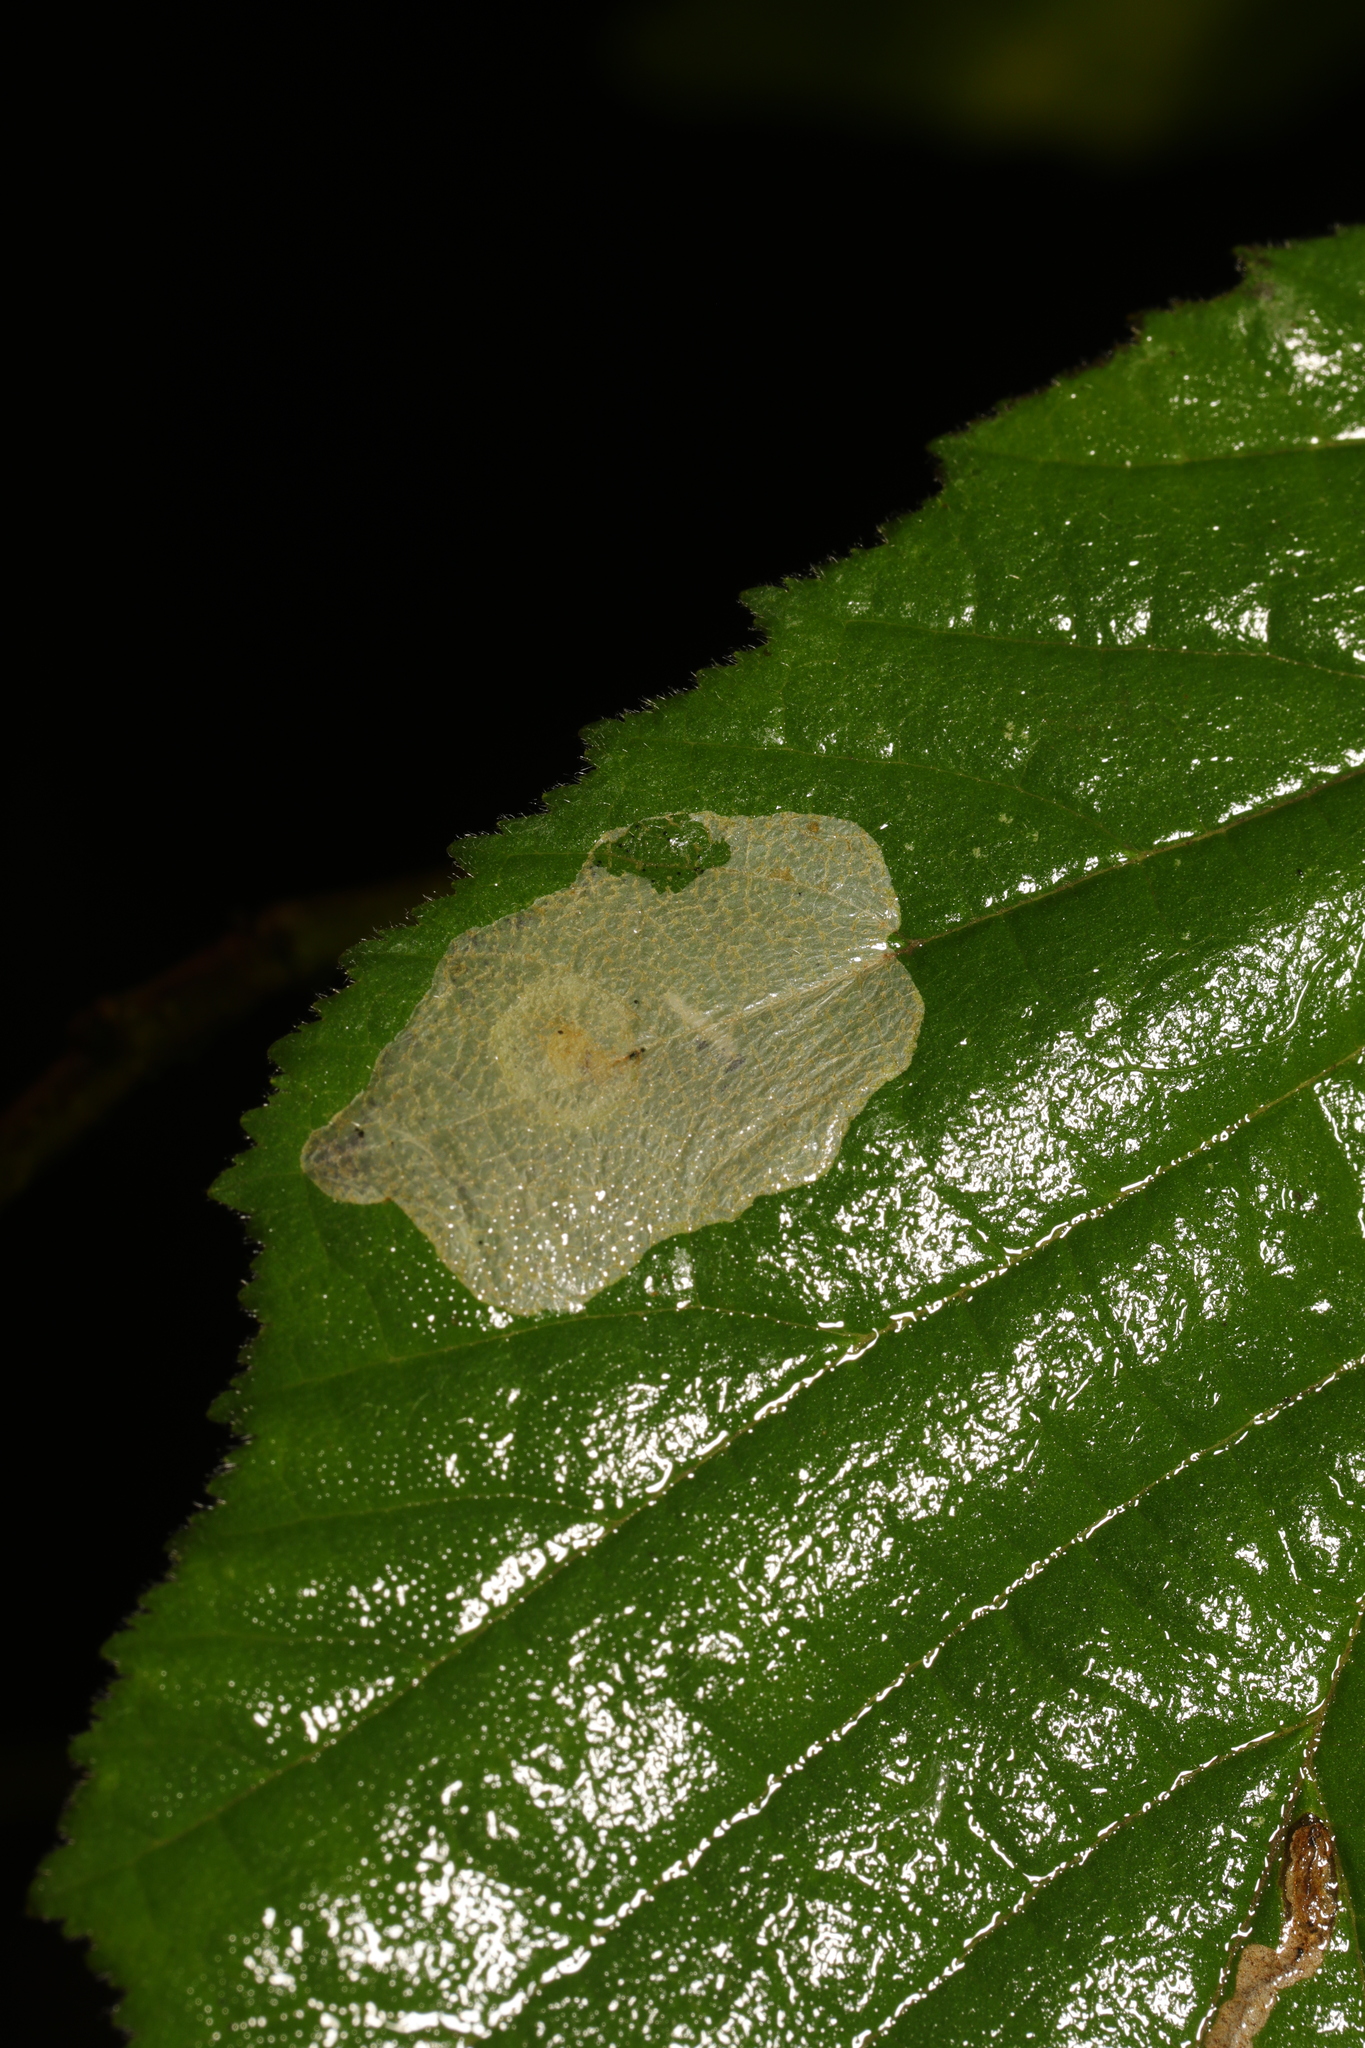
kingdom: Animalia
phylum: Arthropoda
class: Insecta
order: Lepidoptera
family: Gracillariidae
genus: Phyllonorycter
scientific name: Phyllonorycter coryli
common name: Nut-leaf blister moth
